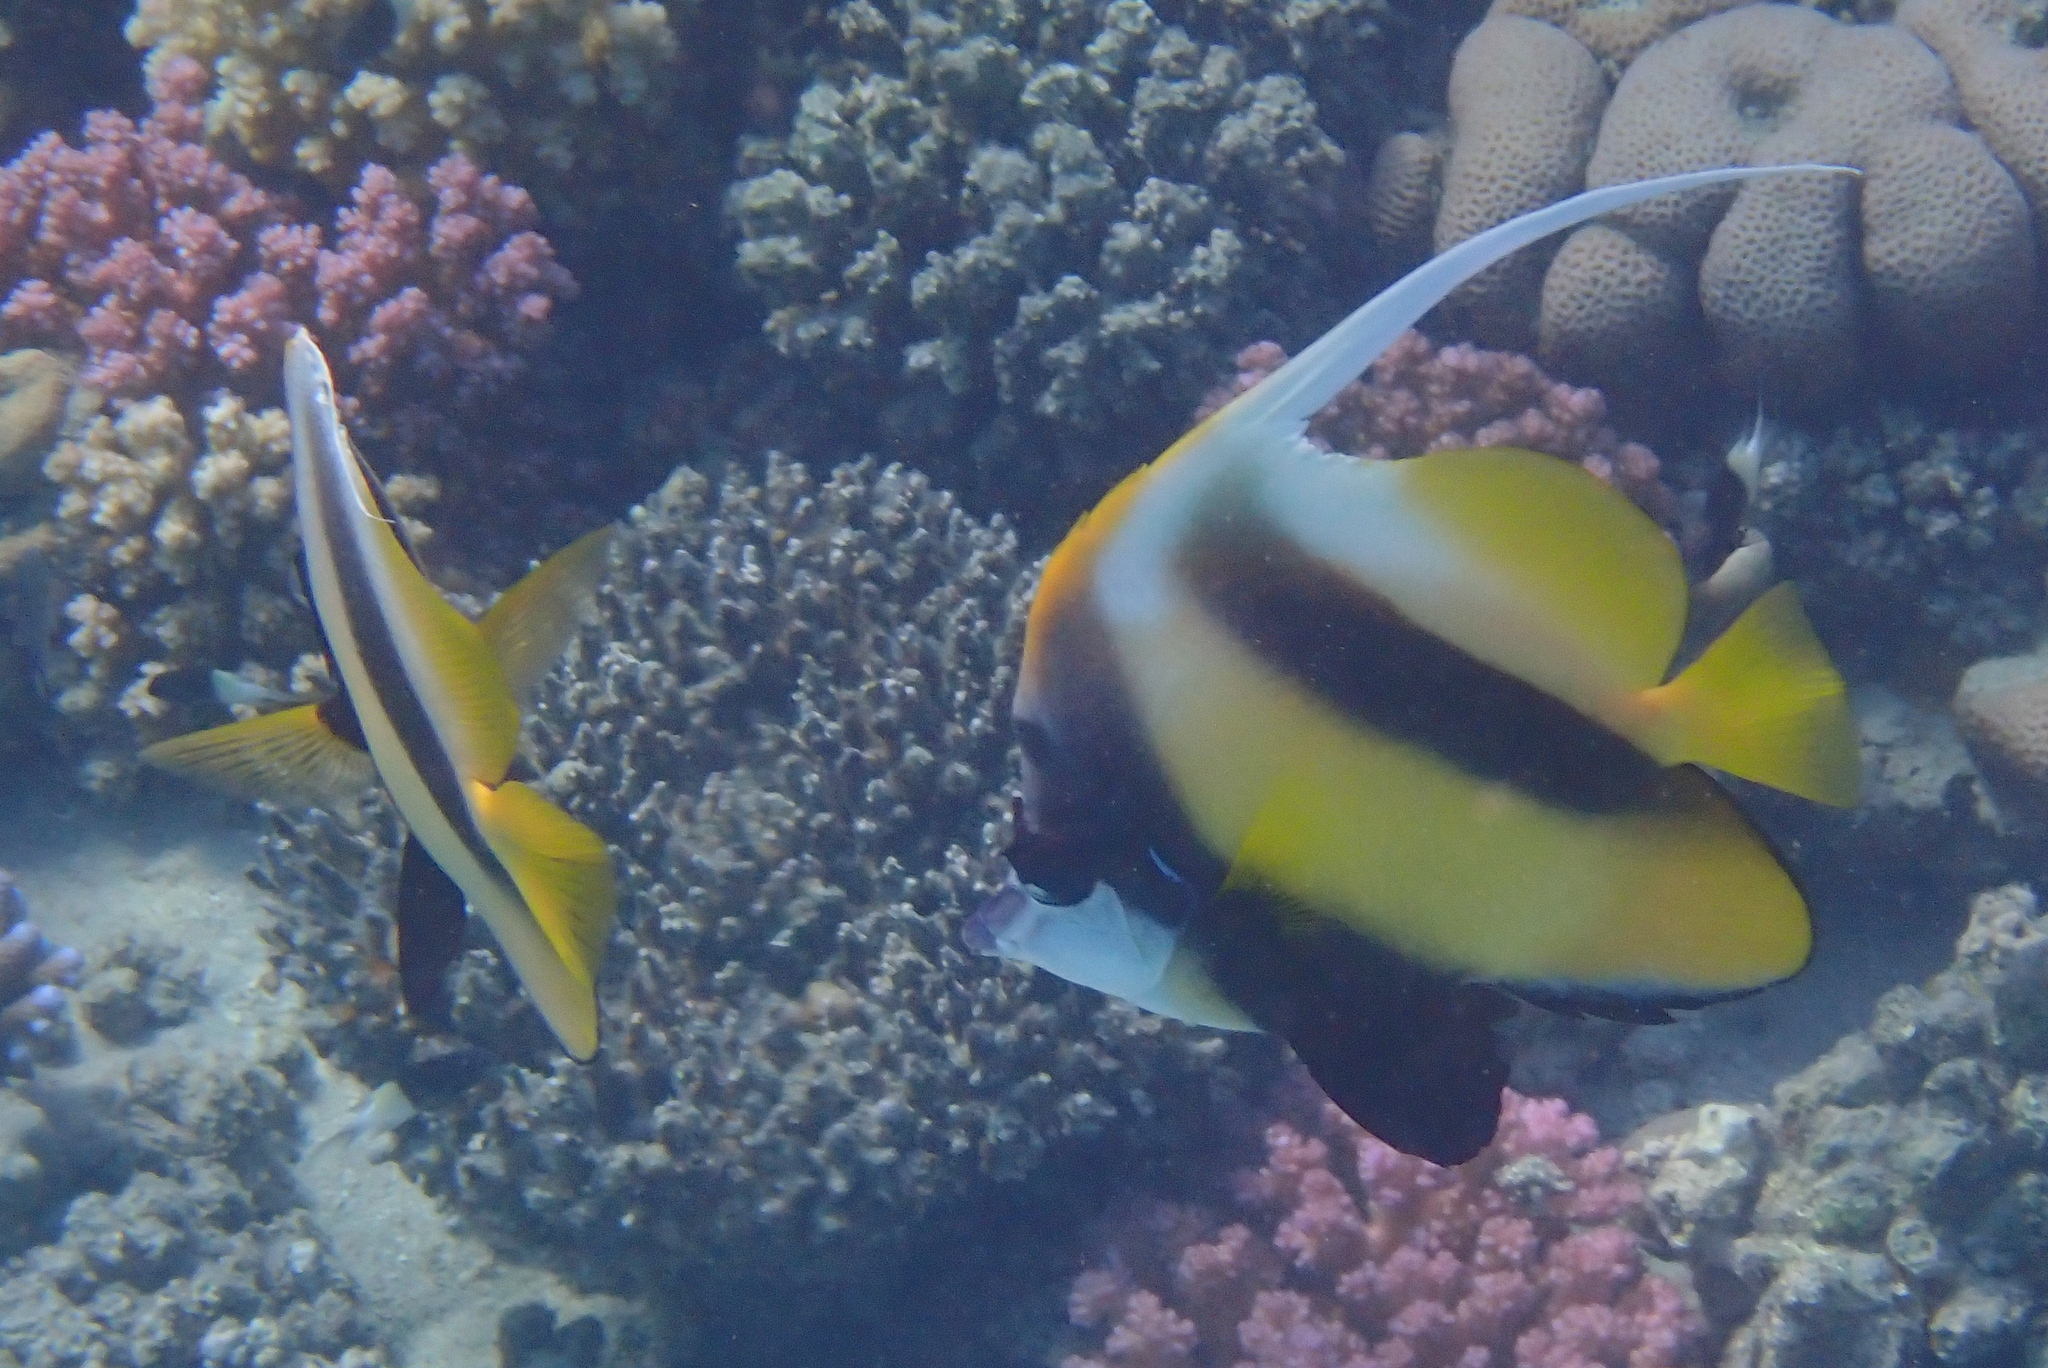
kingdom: Animalia
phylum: Chordata
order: Perciformes
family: Chaetodontidae
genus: Heniochus
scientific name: Heniochus intermedius
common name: Red sea bannerfish
